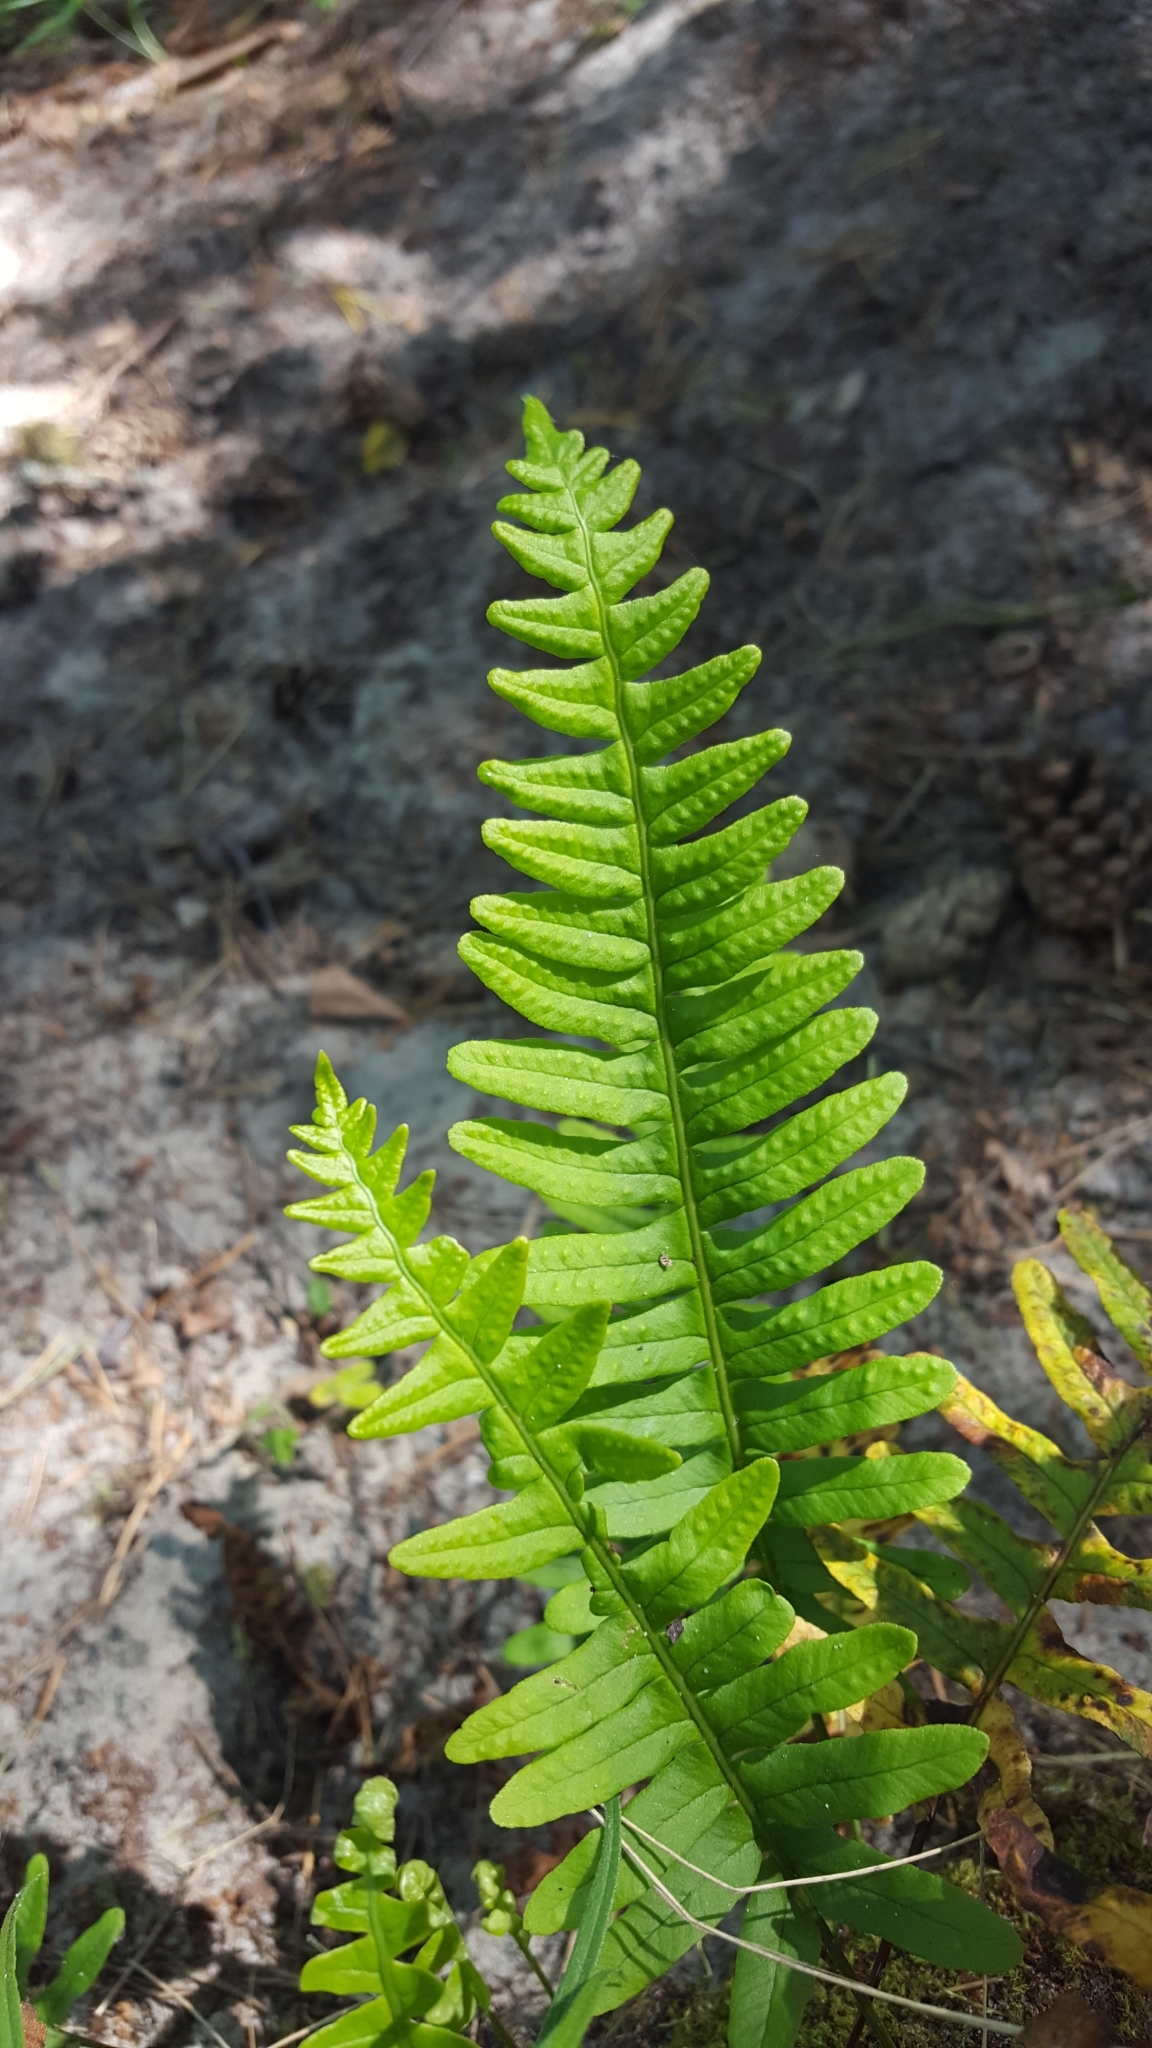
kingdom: Plantae
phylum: Tracheophyta
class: Polypodiopsida
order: Polypodiales
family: Polypodiaceae
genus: Polypodium
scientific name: Polypodium vulgare
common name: Common polypody
